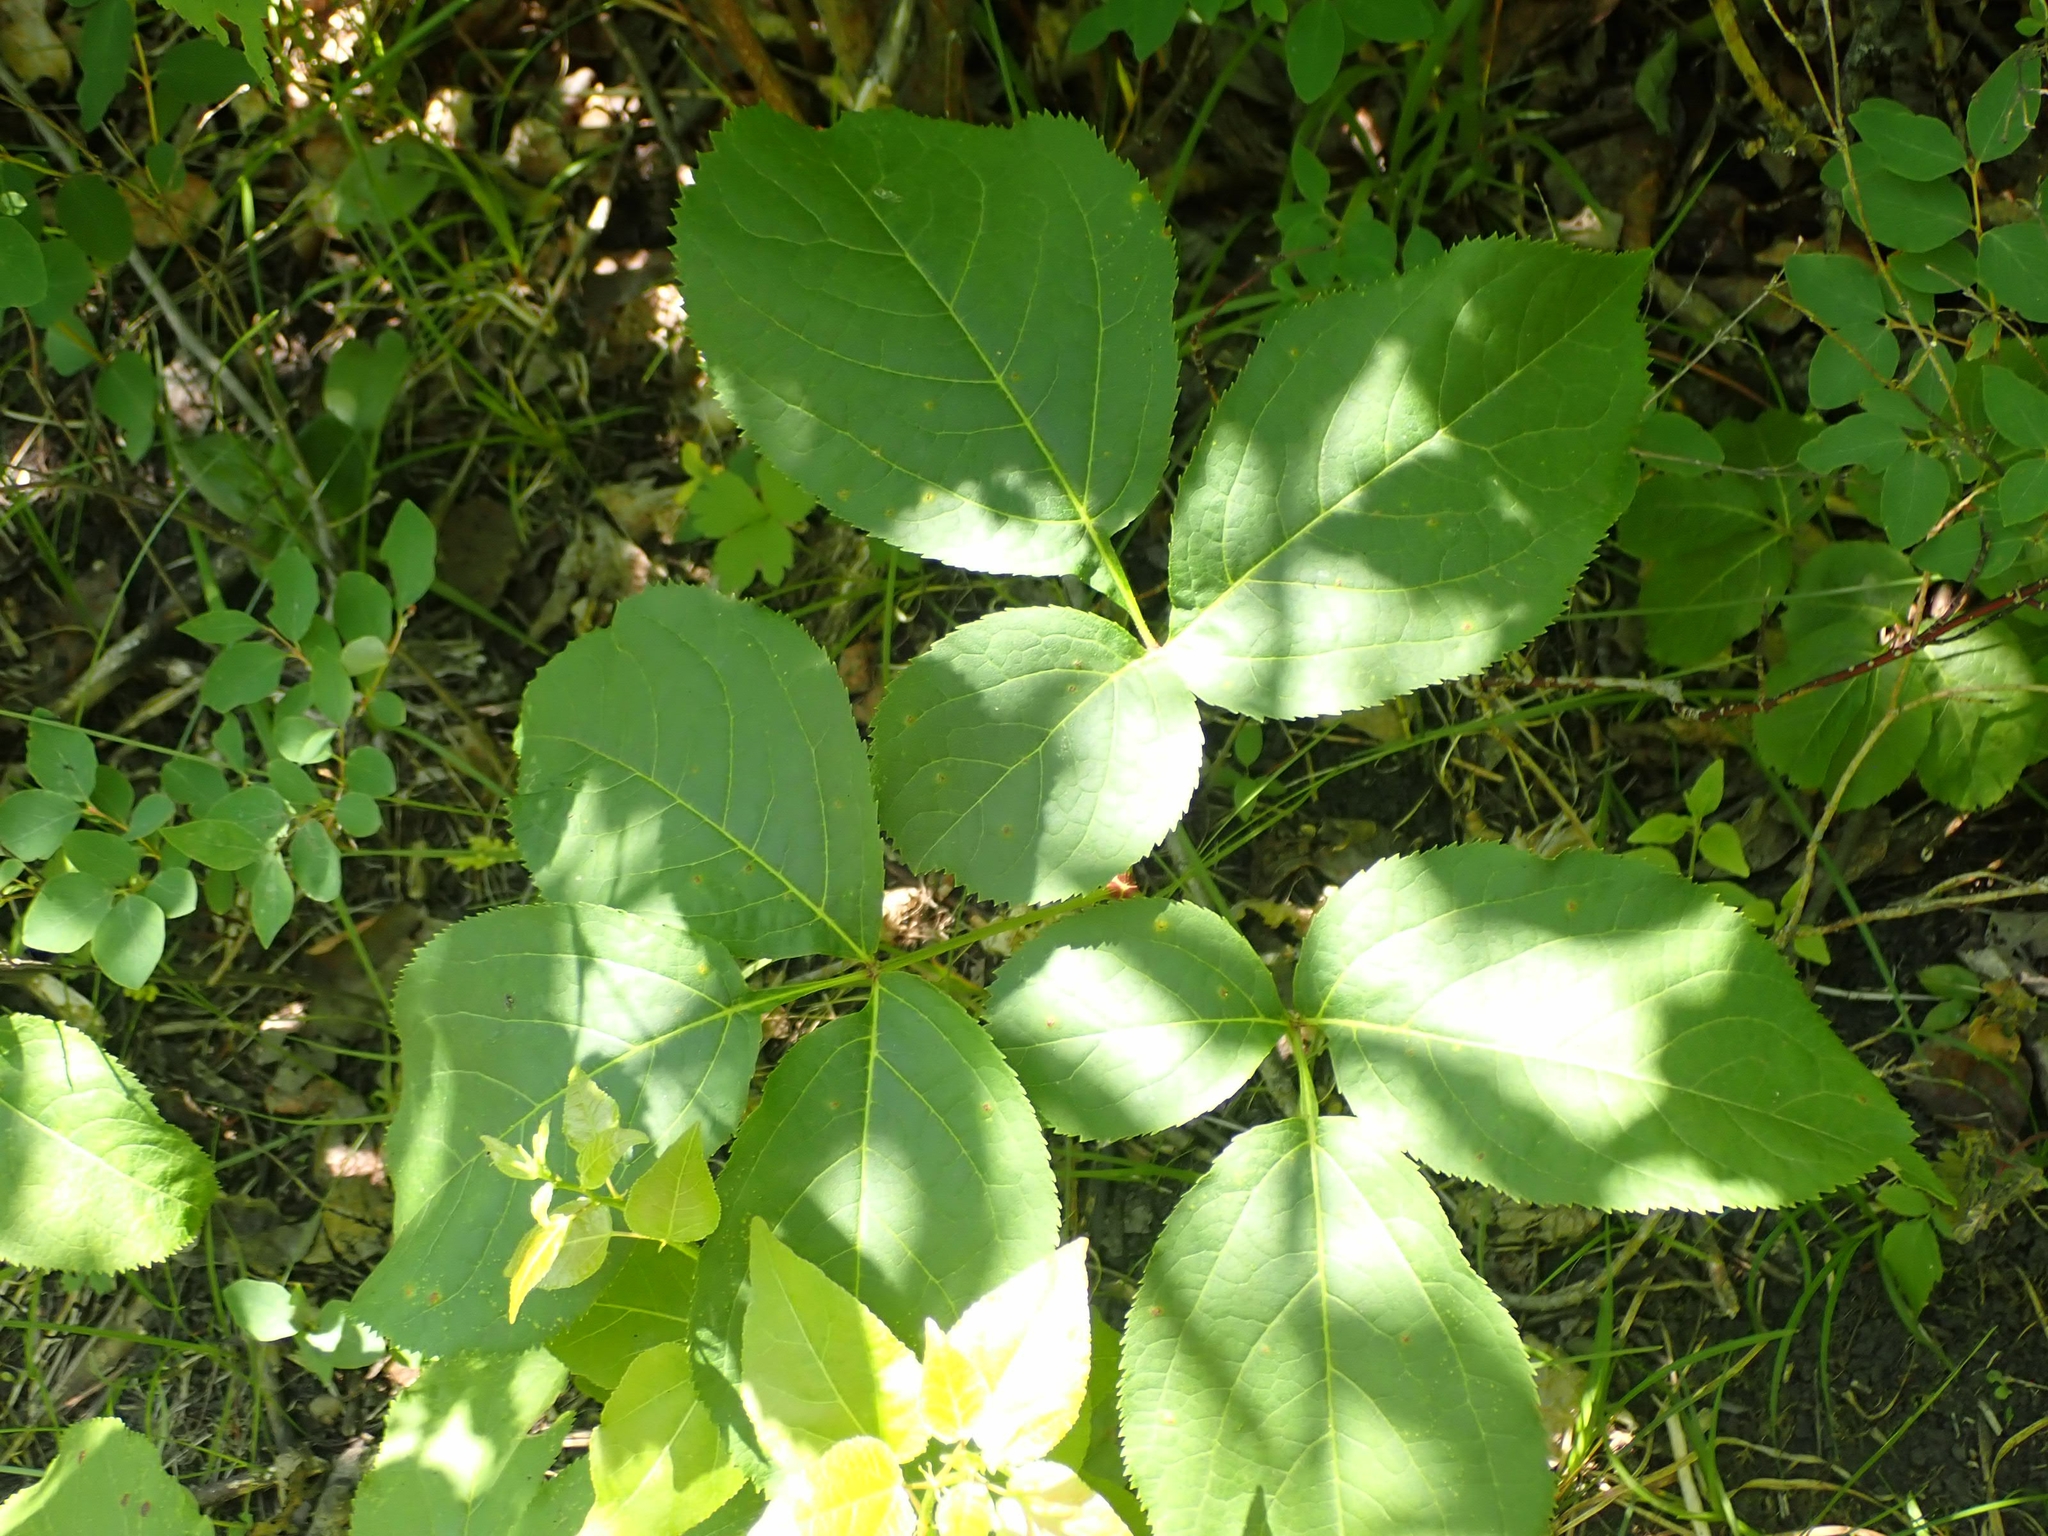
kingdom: Plantae
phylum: Tracheophyta
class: Magnoliopsida
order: Apiales
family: Araliaceae
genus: Aralia
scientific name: Aralia nudicaulis
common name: Wild sarsaparilla
